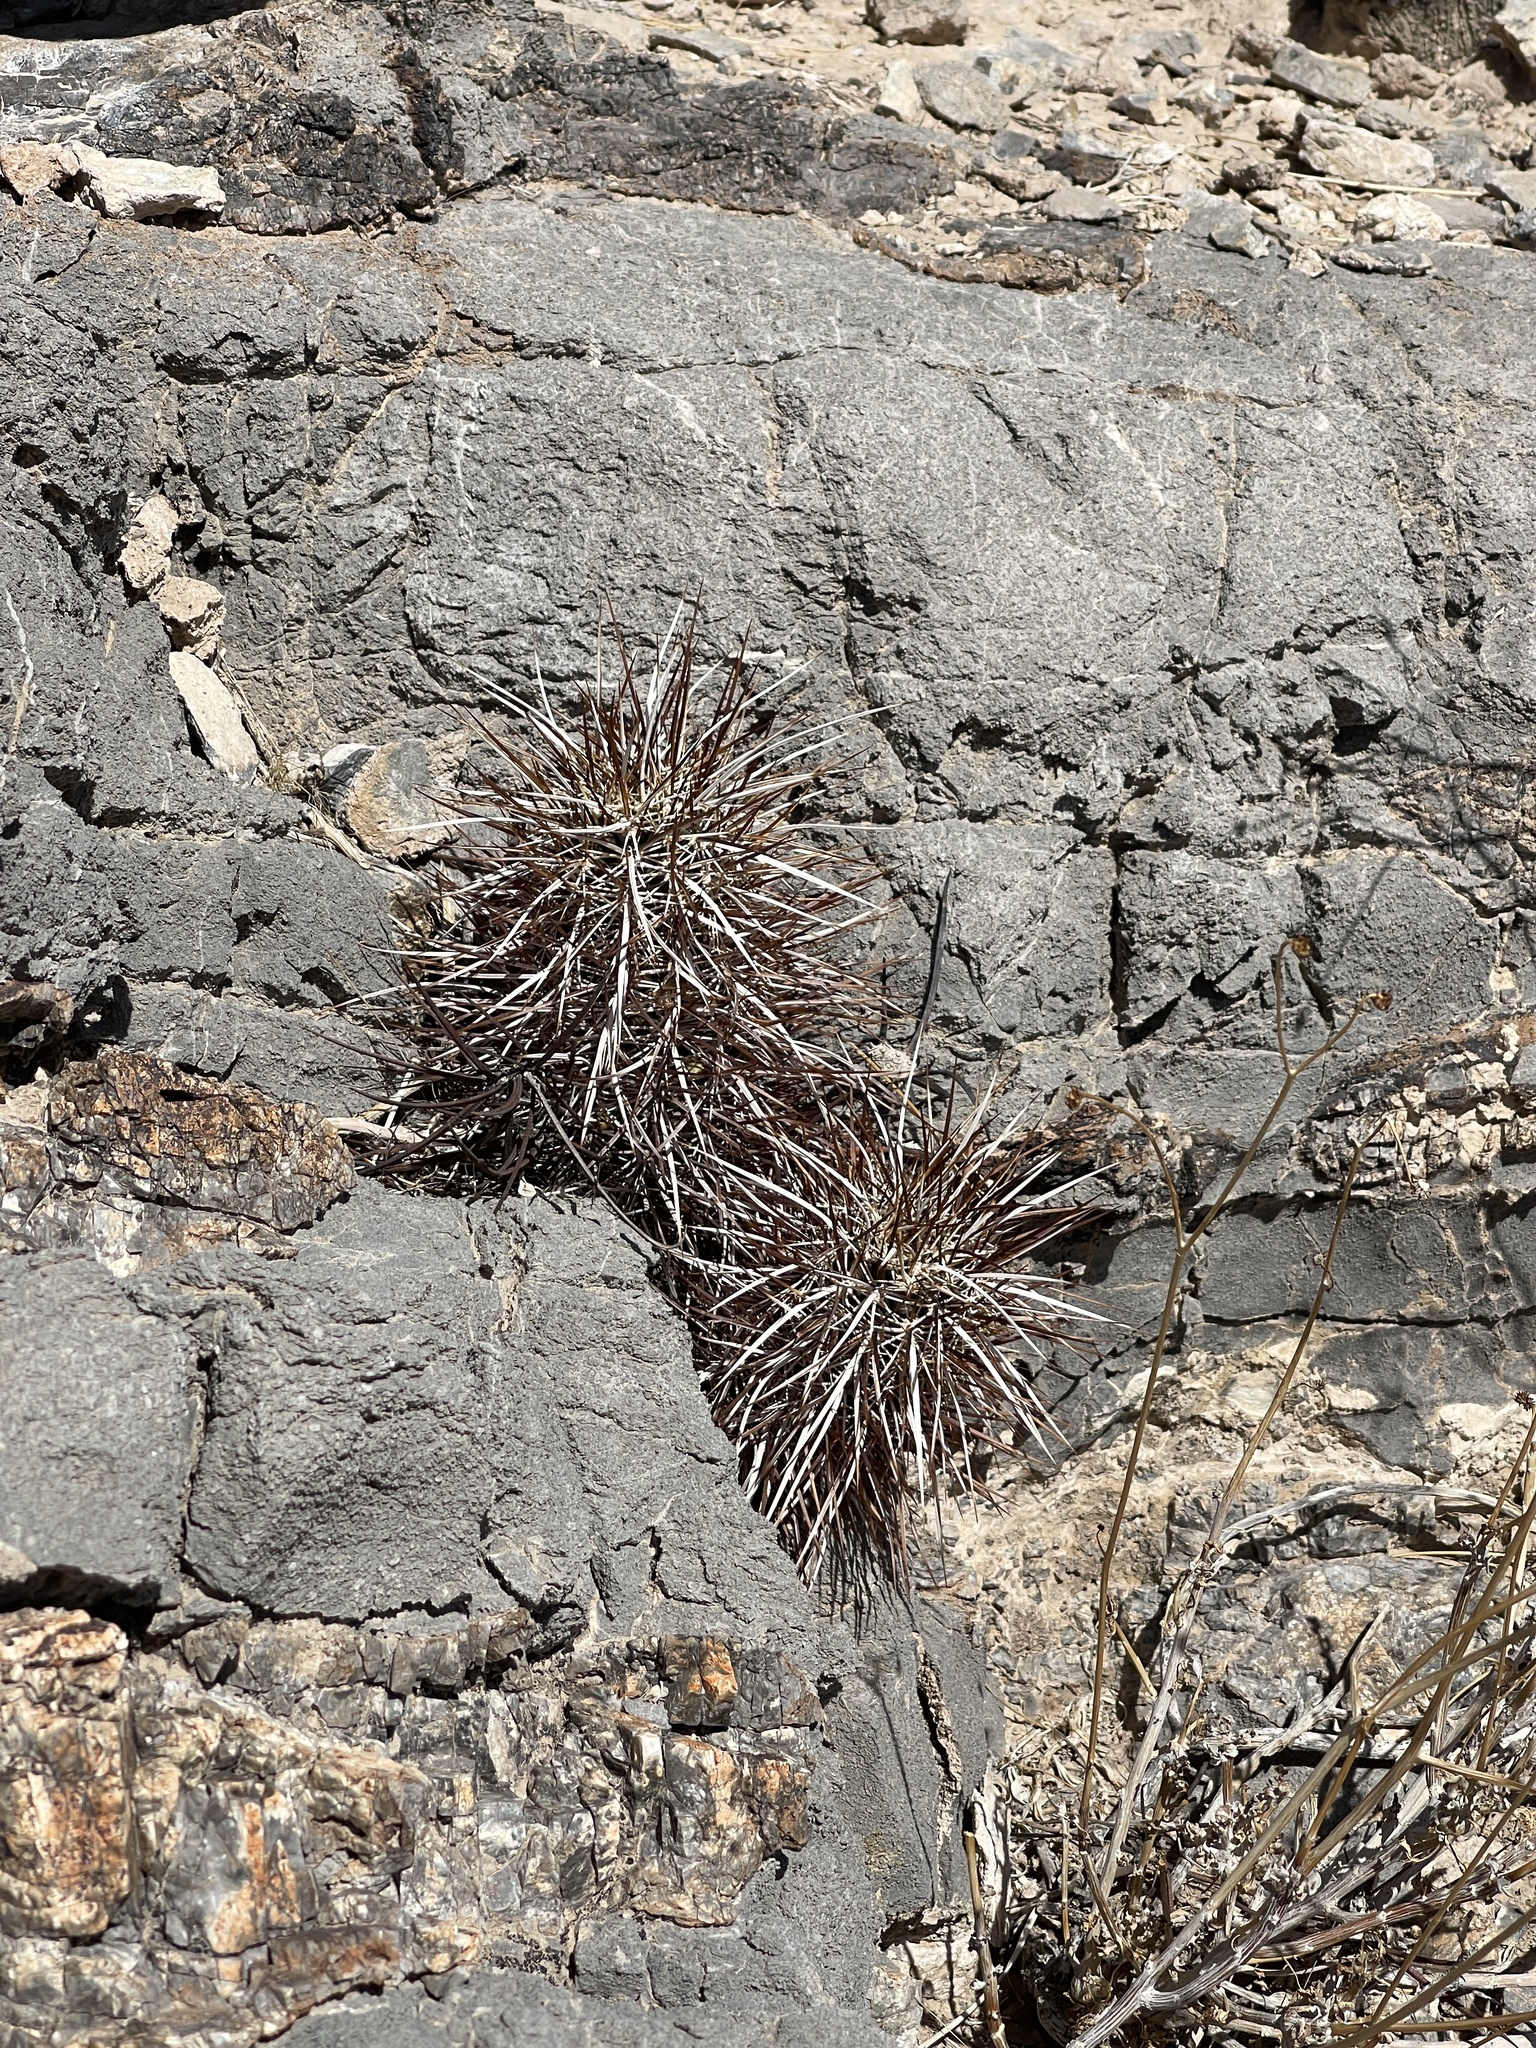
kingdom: Plantae
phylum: Tracheophyta
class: Magnoliopsida
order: Caryophyllales
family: Cactaceae
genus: Echinocereus
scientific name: Echinocereus engelmannii
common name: Engelmann's hedgehog cactus
